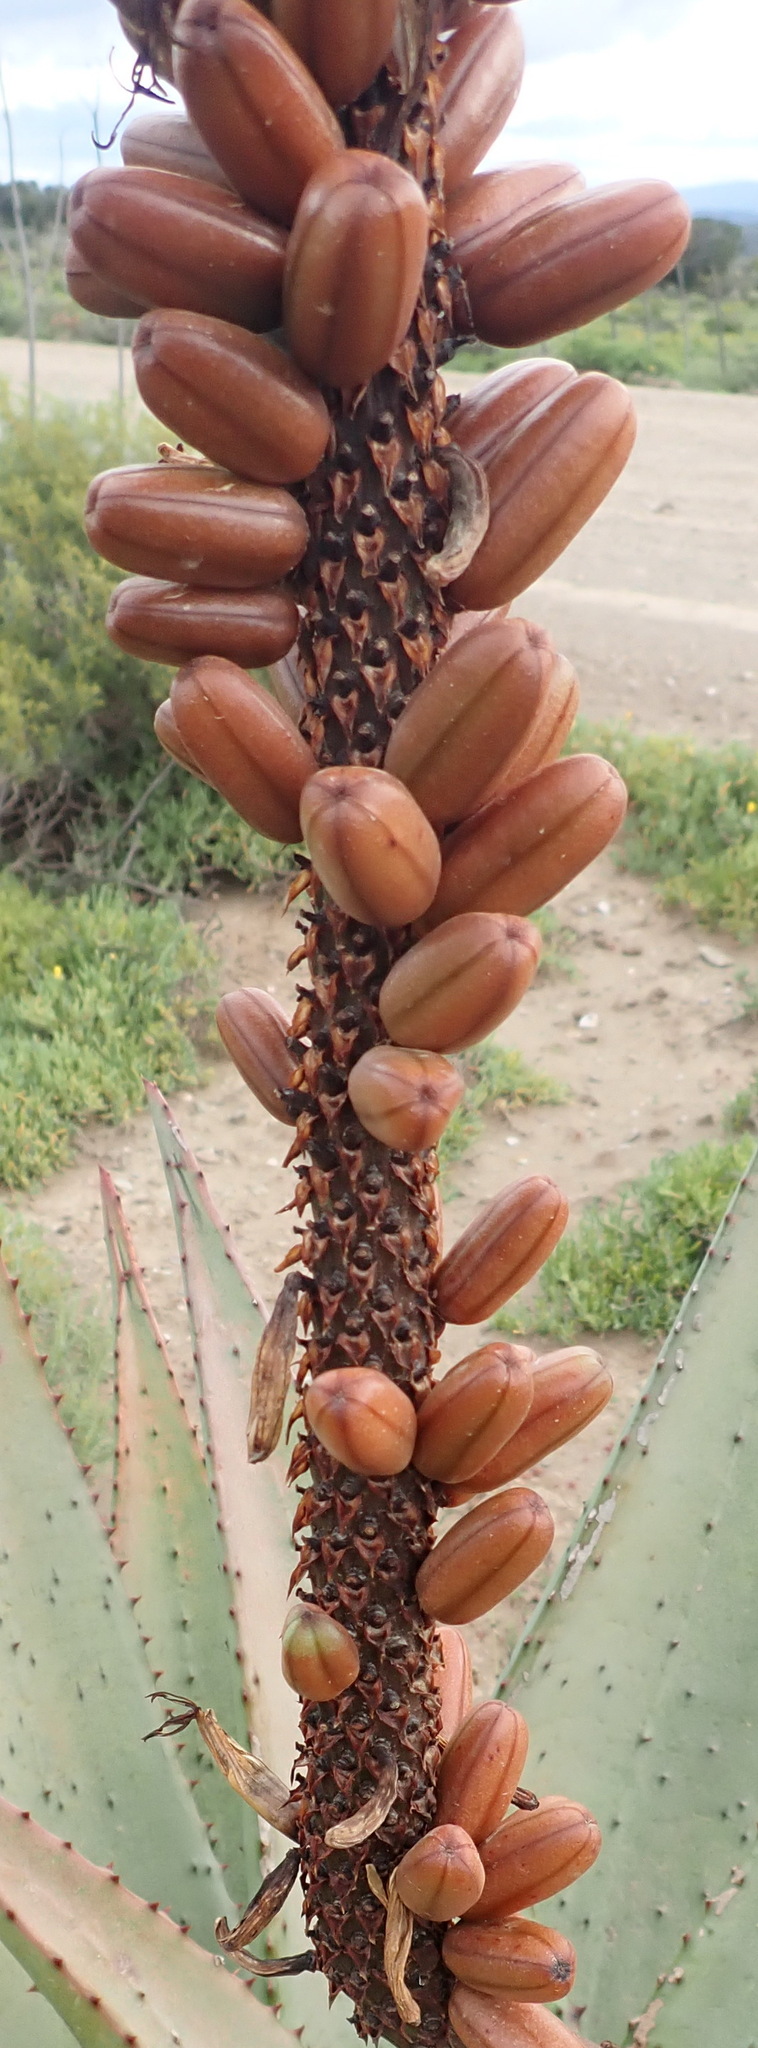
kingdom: Plantae
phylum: Tracheophyta
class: Liliopsida
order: Asparagales
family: Asphodelaceae
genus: Aloe
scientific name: Aloe ferox
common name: Bitter aloe
